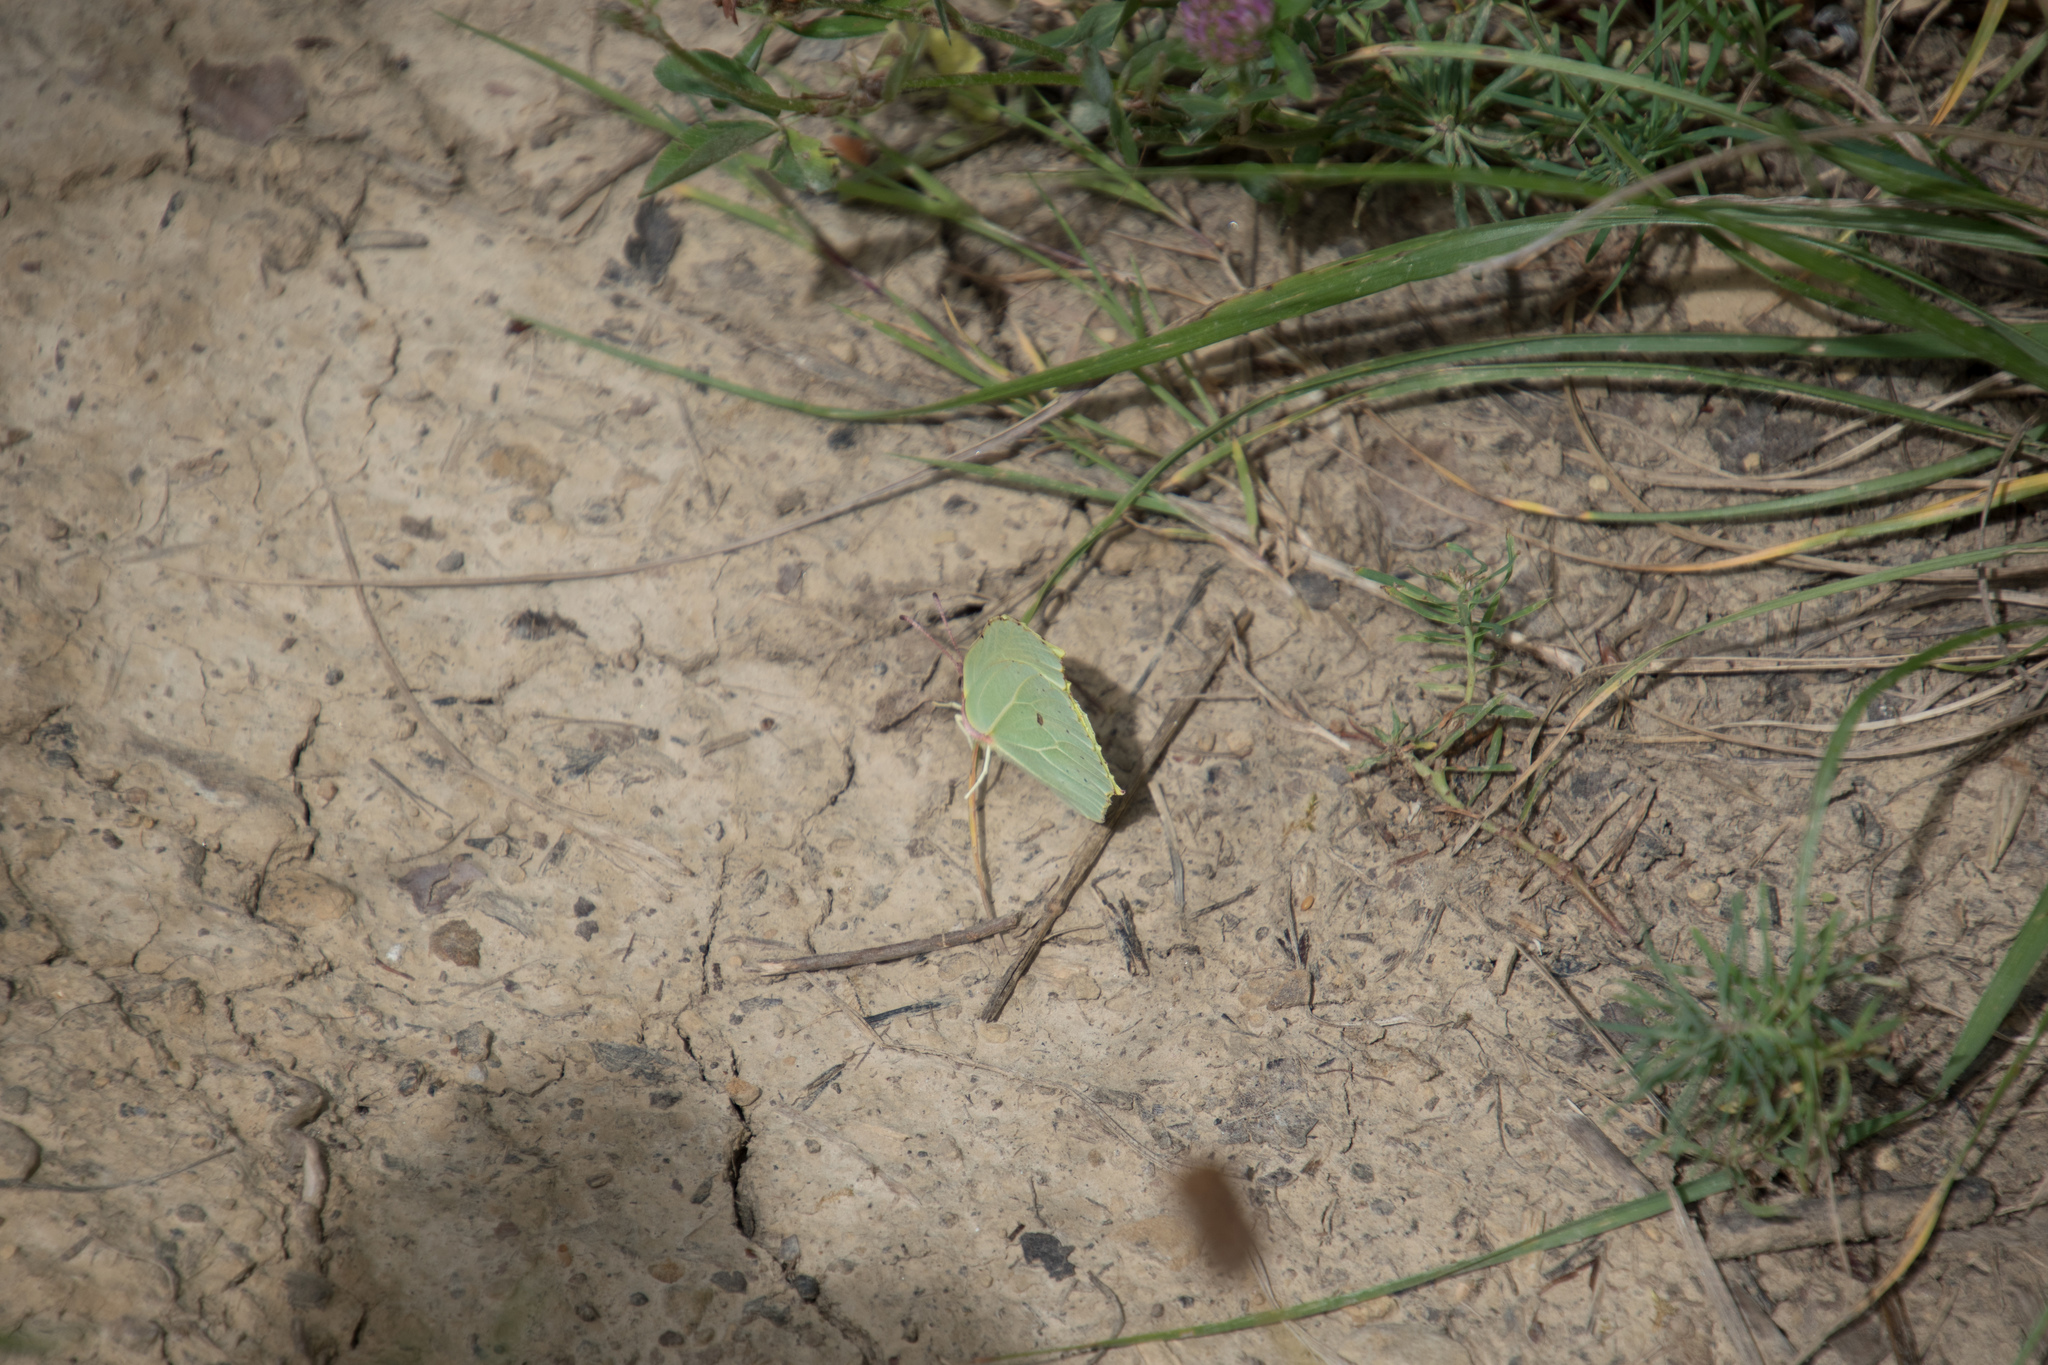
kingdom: Animalia
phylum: Arthropoda
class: Insecta
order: Lepidoptera
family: Pieridae
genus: Gonepteryx
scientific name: Gonepteryx rhamni
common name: Brimstone
